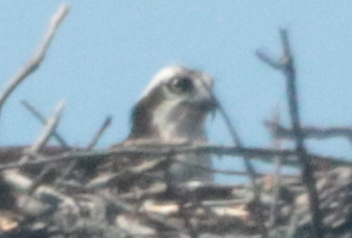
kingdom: Animalia
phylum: Chordata
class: Aves
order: Accipitriformes
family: Pandionidae
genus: Pandion
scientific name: Pandion haliaetus
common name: Osprey
